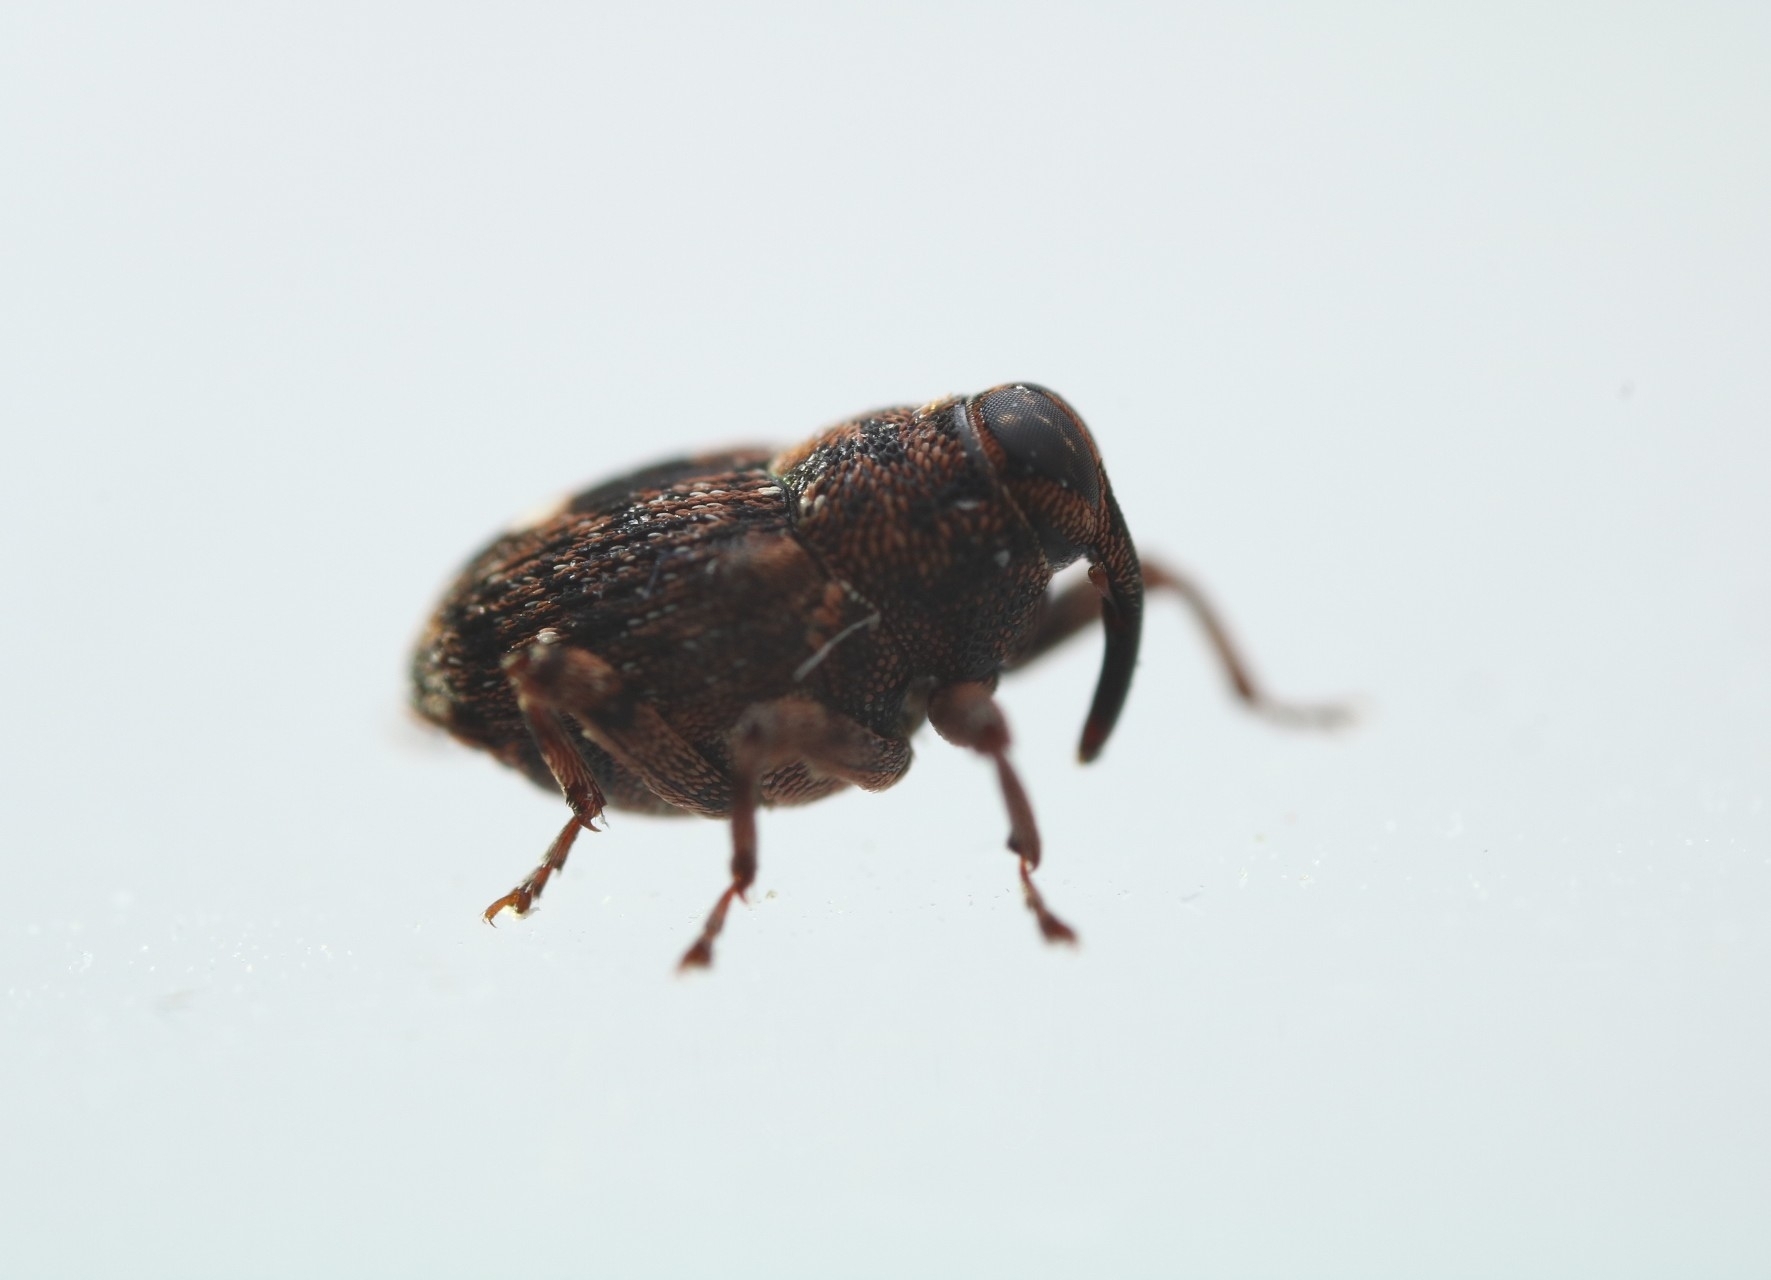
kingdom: Animalia
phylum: Arthropoda
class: Insecta
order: Coleoptera
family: Curculionidae
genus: Lechriops
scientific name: Lechriops oculatus
